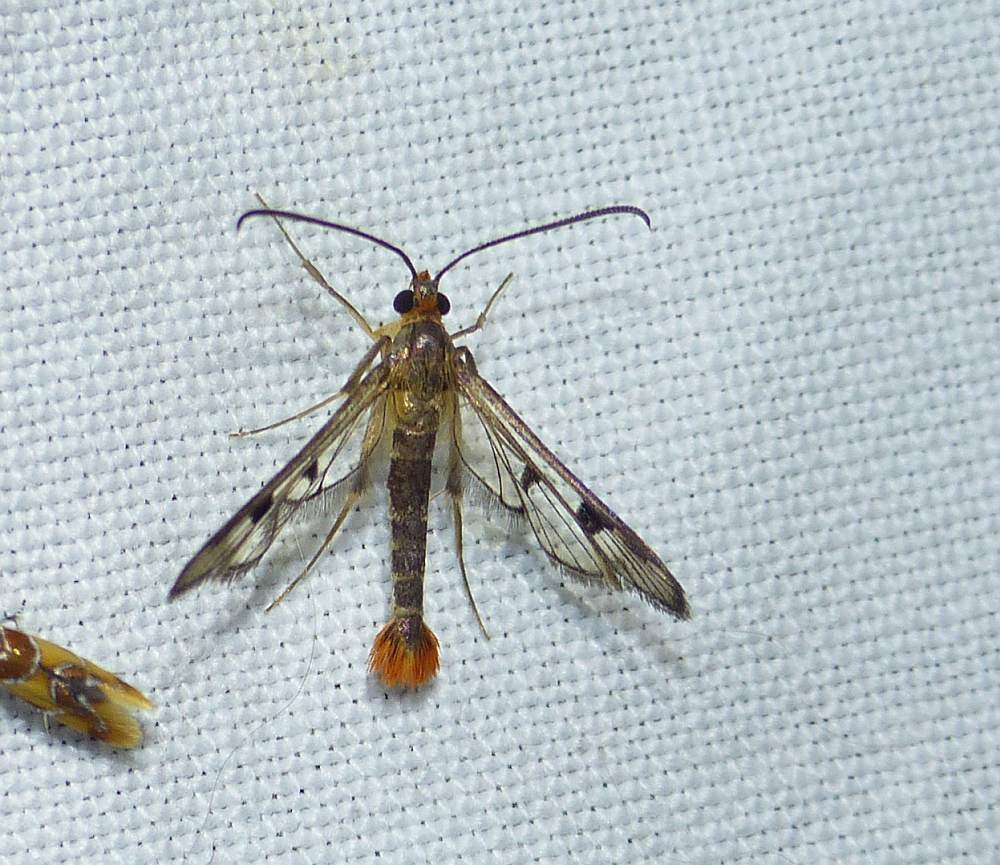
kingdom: Animalia
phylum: Arthropoda
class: Insecta
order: Lepidoptera
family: Sesiidae
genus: Synanthedon
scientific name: Synanthedon acerni
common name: Maple callus borer moth
